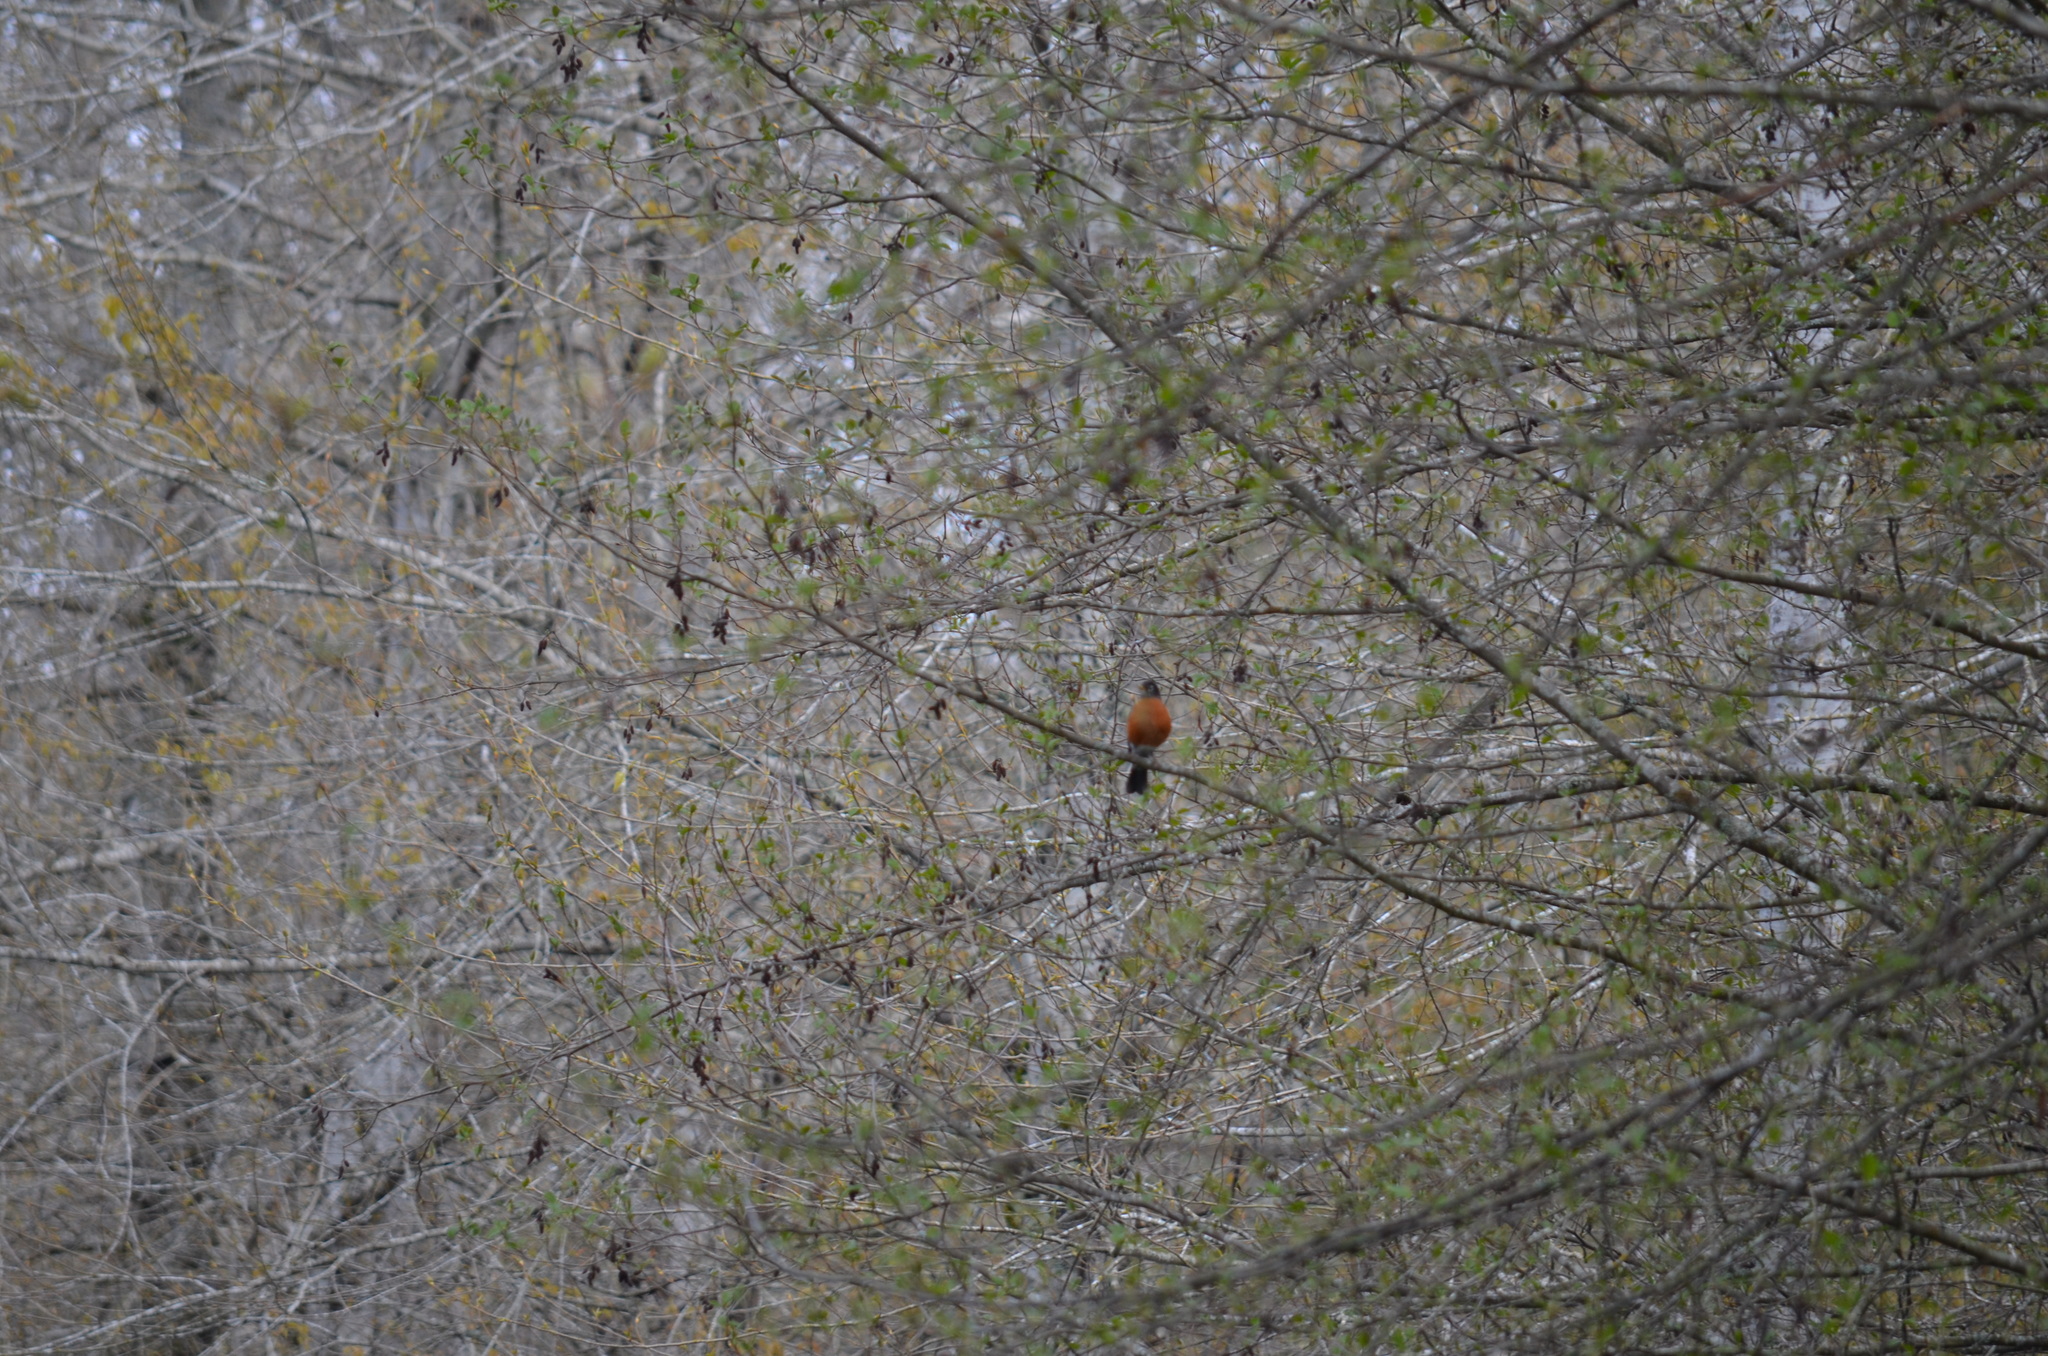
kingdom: Animalia
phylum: Chordata
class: Aves
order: Passeriformes
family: Turdidae
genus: Turdus
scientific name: Turdus migratorius
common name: American robin
